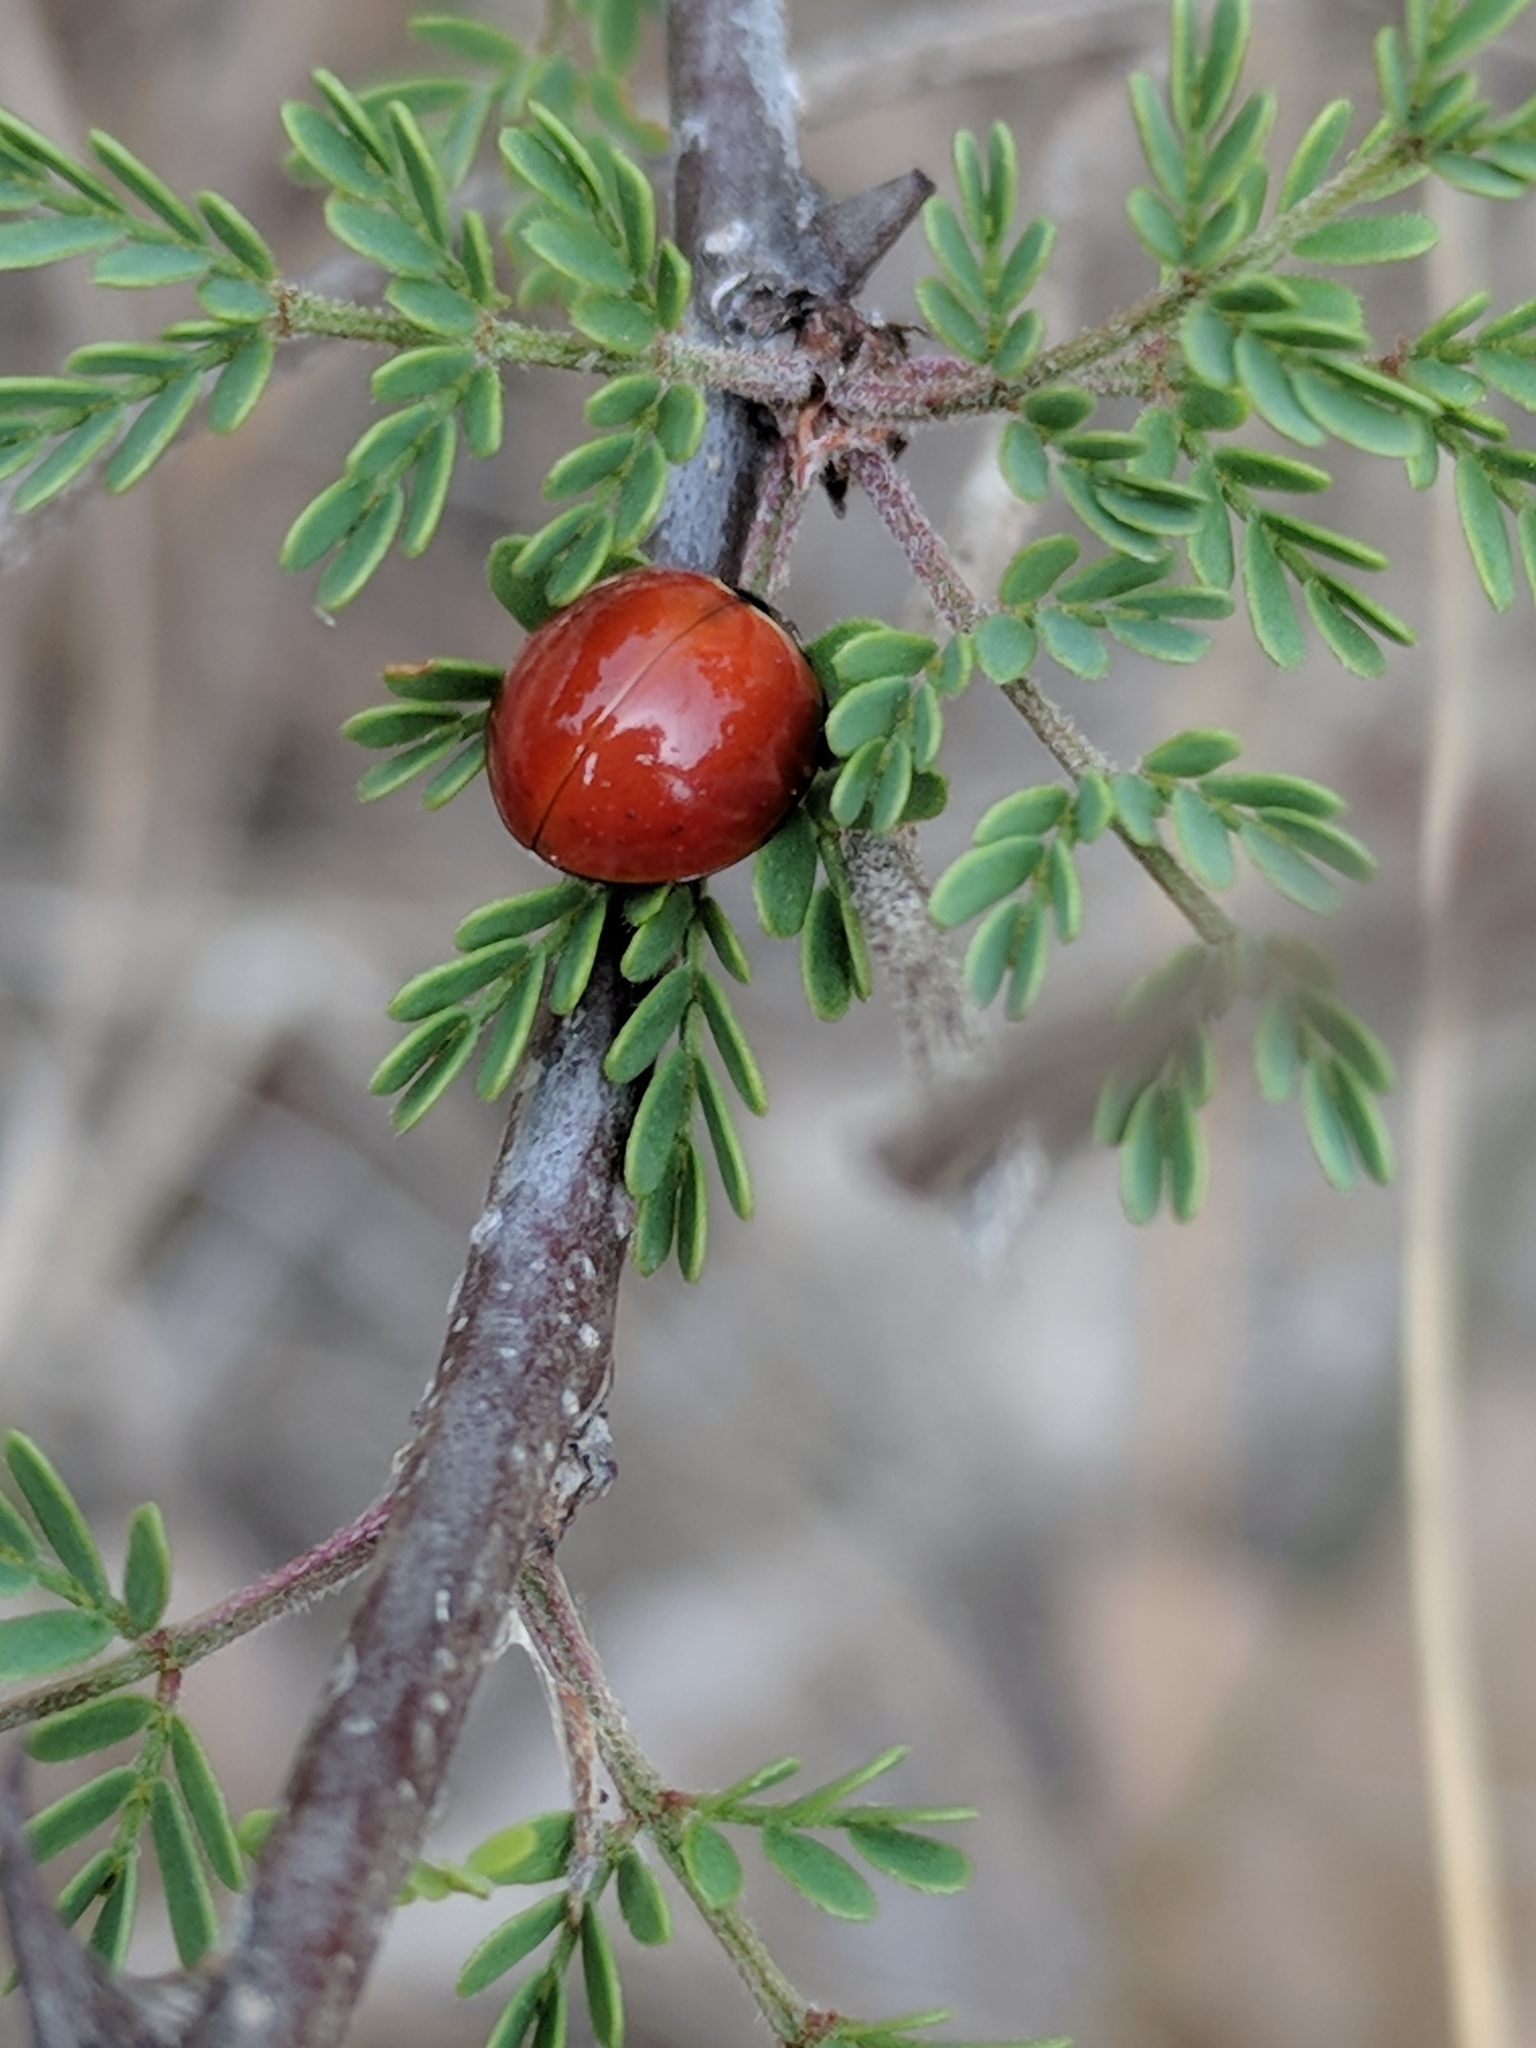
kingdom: Animalia
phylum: Arthropoda
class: Insecta
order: Coleoptera
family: Coccinellidae
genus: Cycloneda
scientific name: Cycloneda sanguinea
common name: Ladybird beetle
